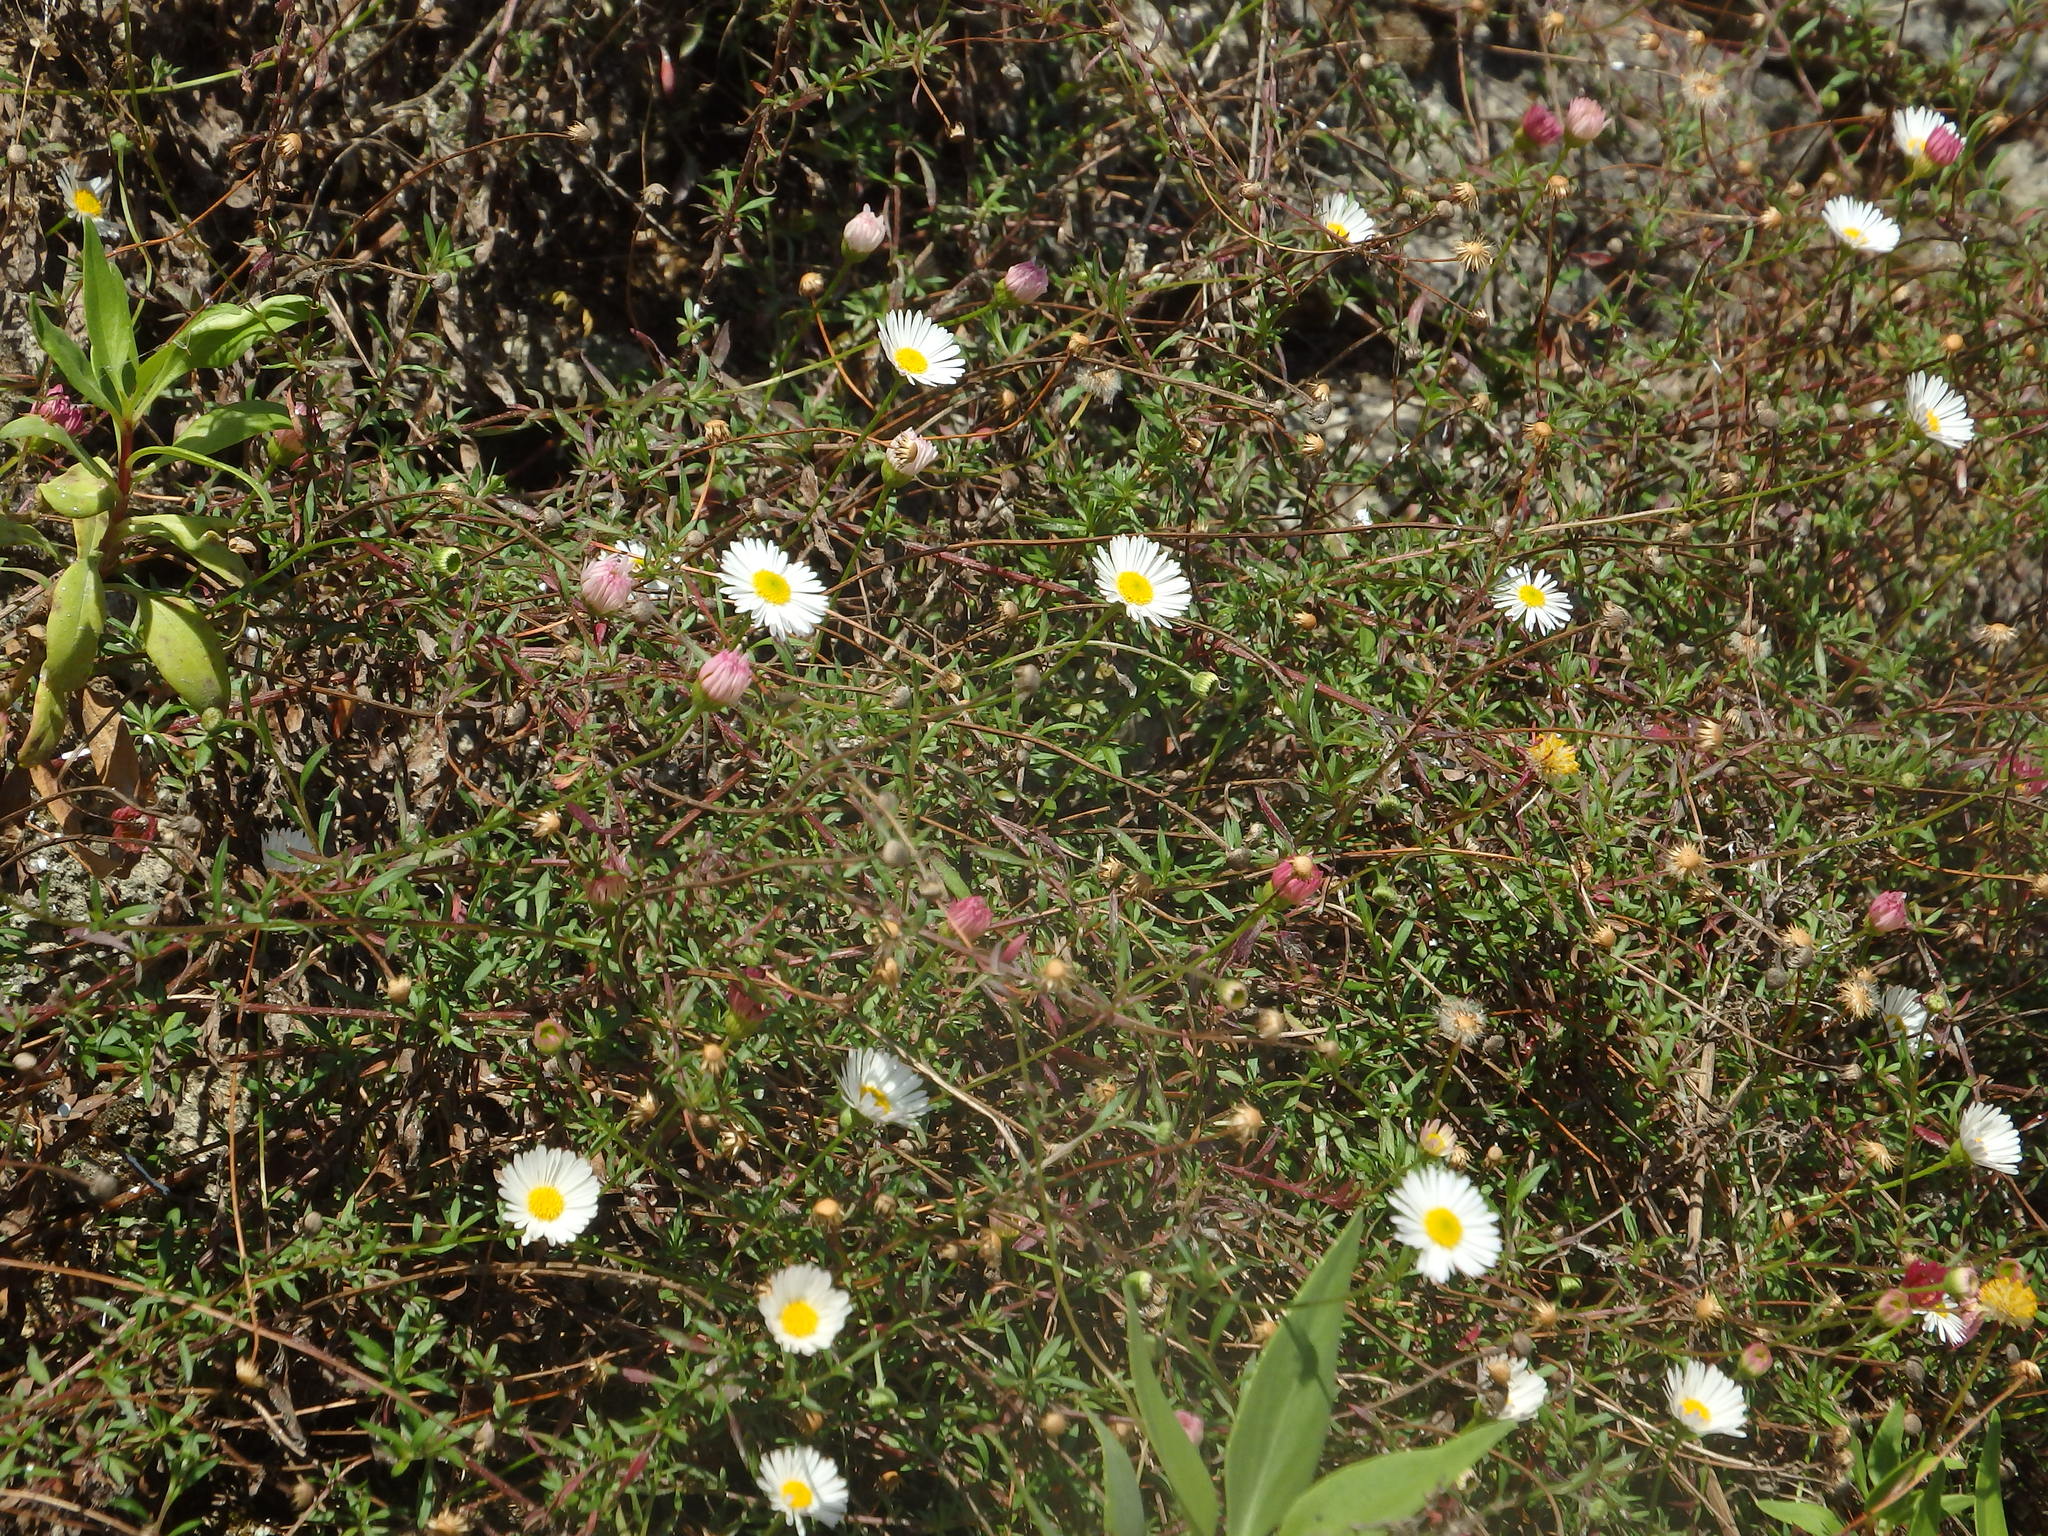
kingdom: Plantae
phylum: Tracheophyta
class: Magnoliopsida
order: Asterales
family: Asteraceae
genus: Erigeron
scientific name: Erigeron karvinskianus
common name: Mexican fleabane
